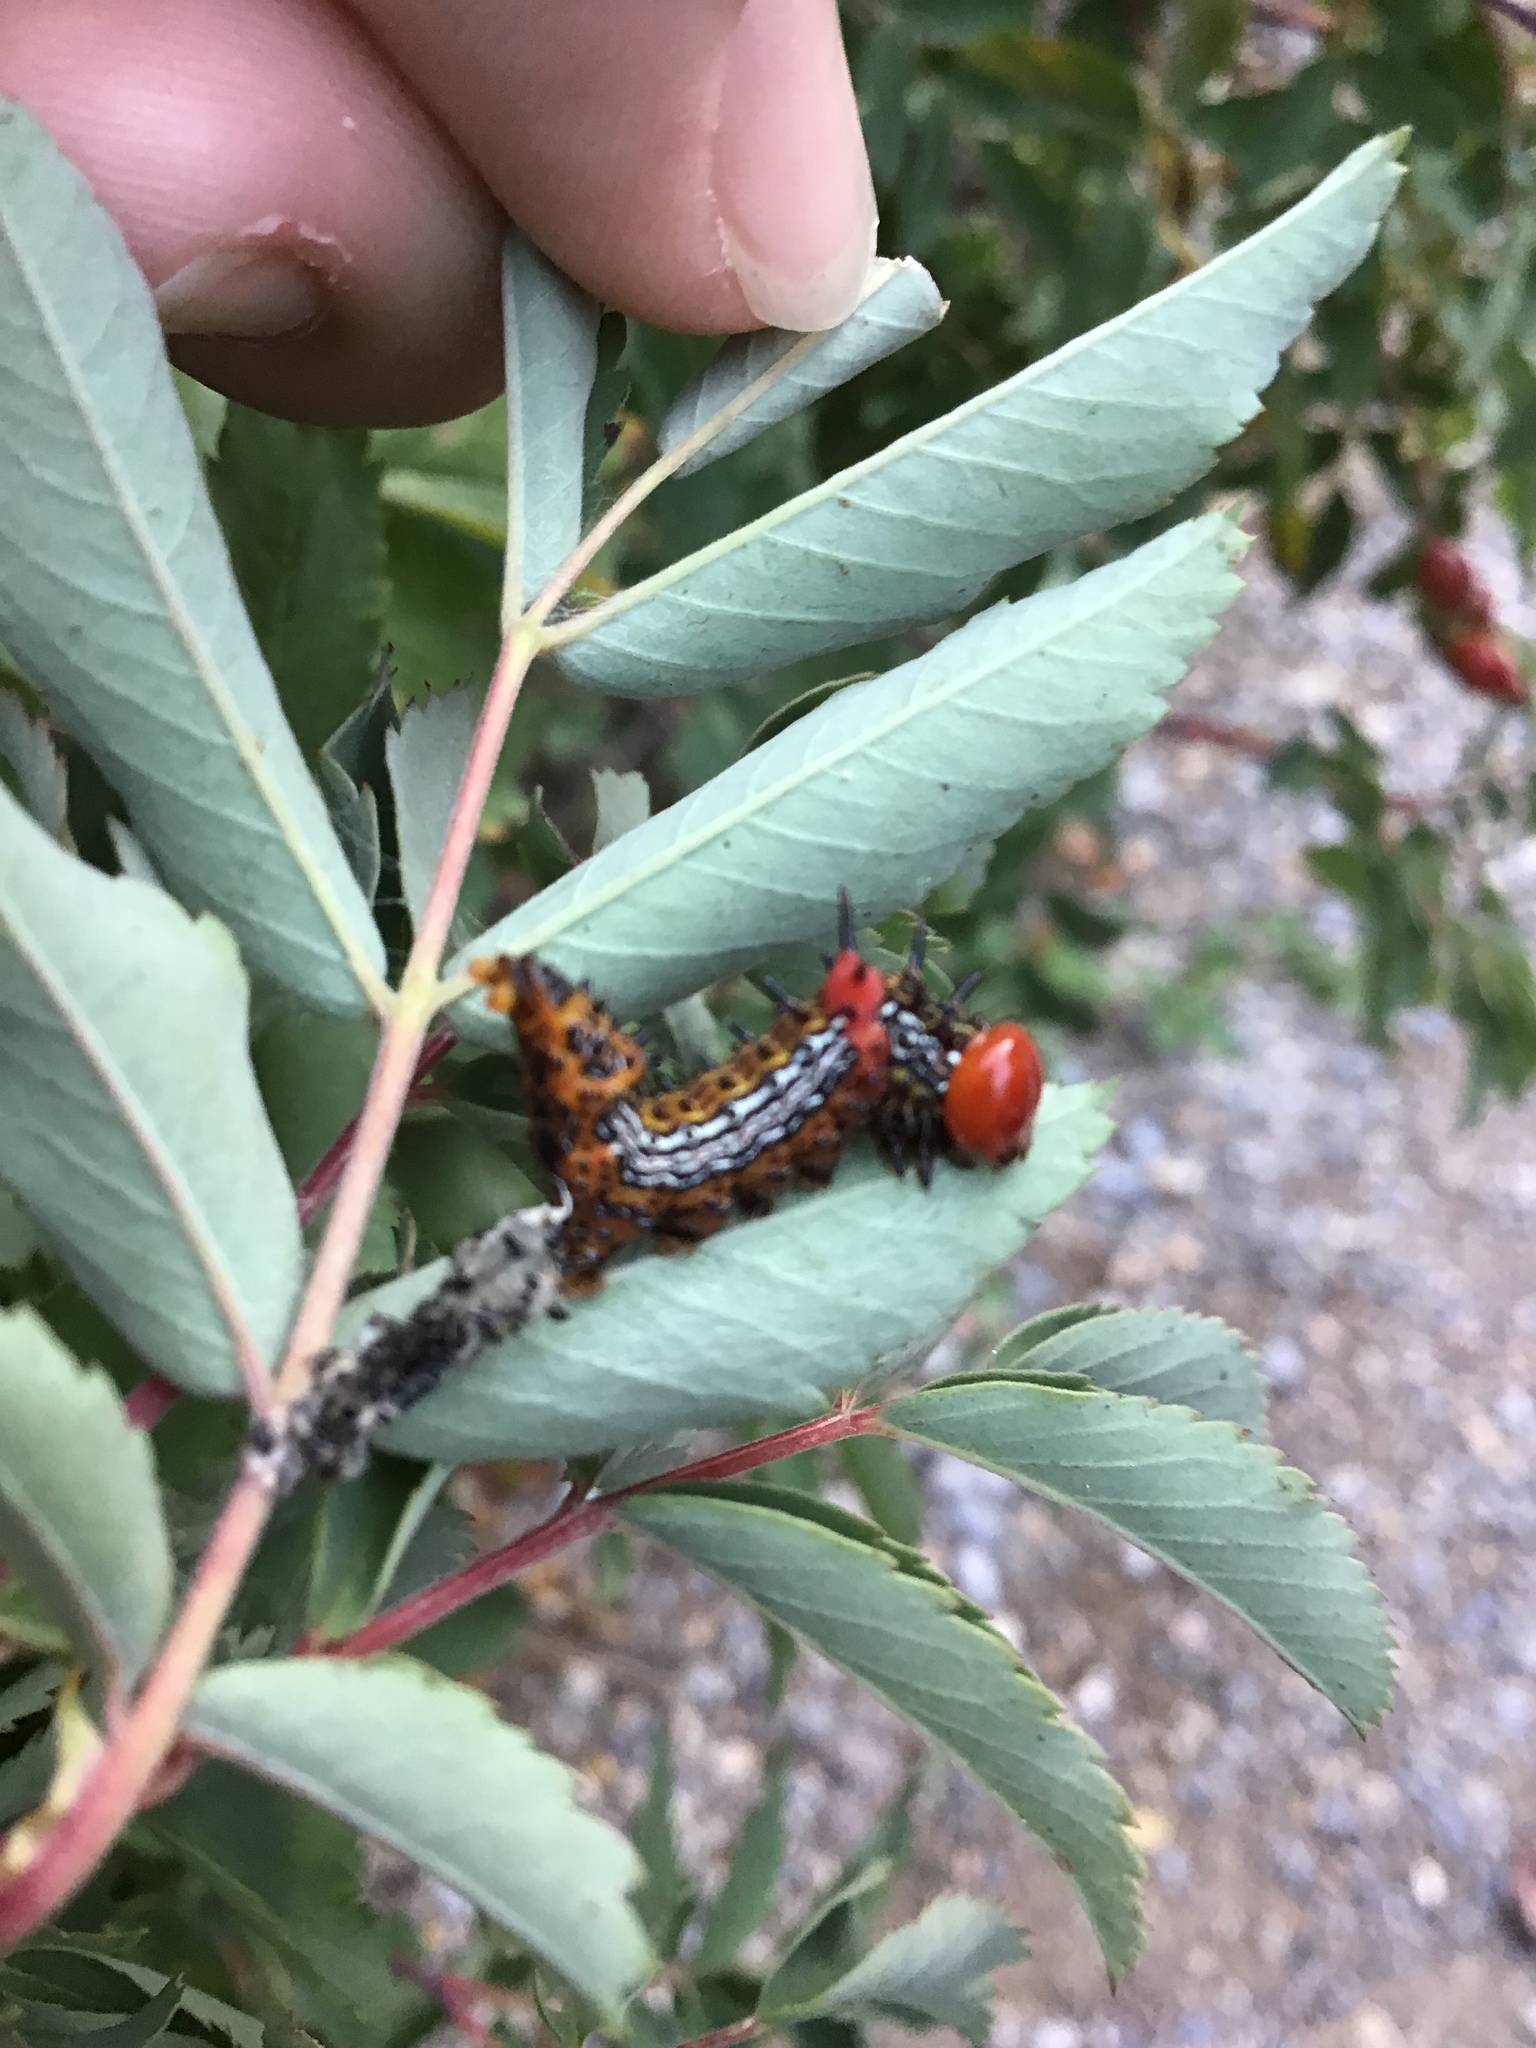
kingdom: Animalia
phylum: Arthropoda
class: Insecta
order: Lepidoptera
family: Notodontidae
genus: Schizura
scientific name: Schizura
